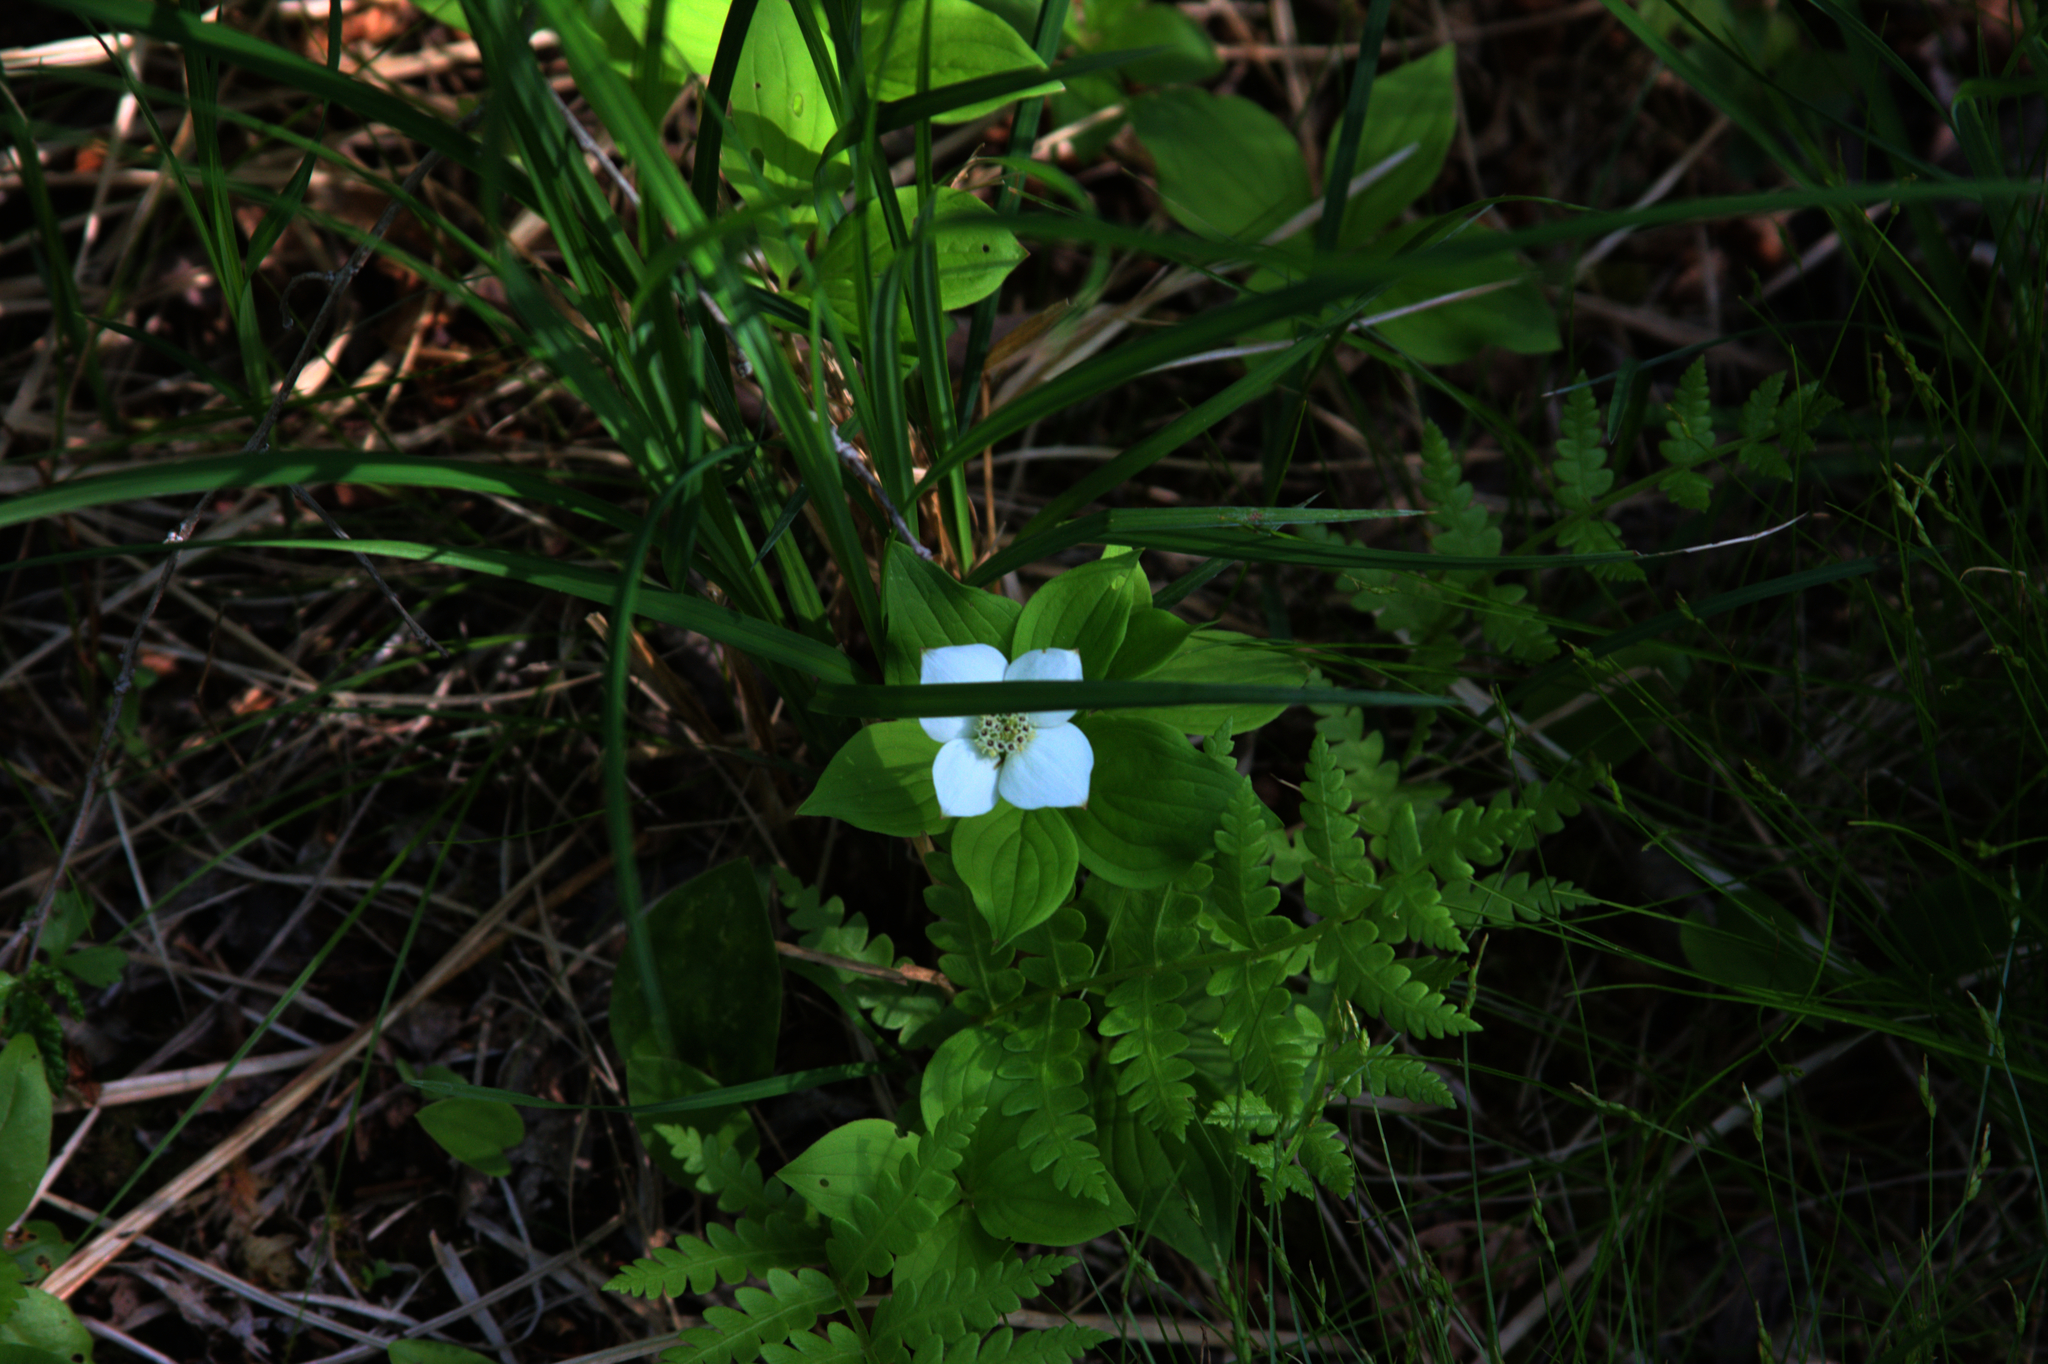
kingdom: Plantae
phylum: Tracheophyta
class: Magnoliopsida
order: Cornales
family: Cornaceae
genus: Cornus
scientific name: Cornus canadensis
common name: Creeping dogwood
